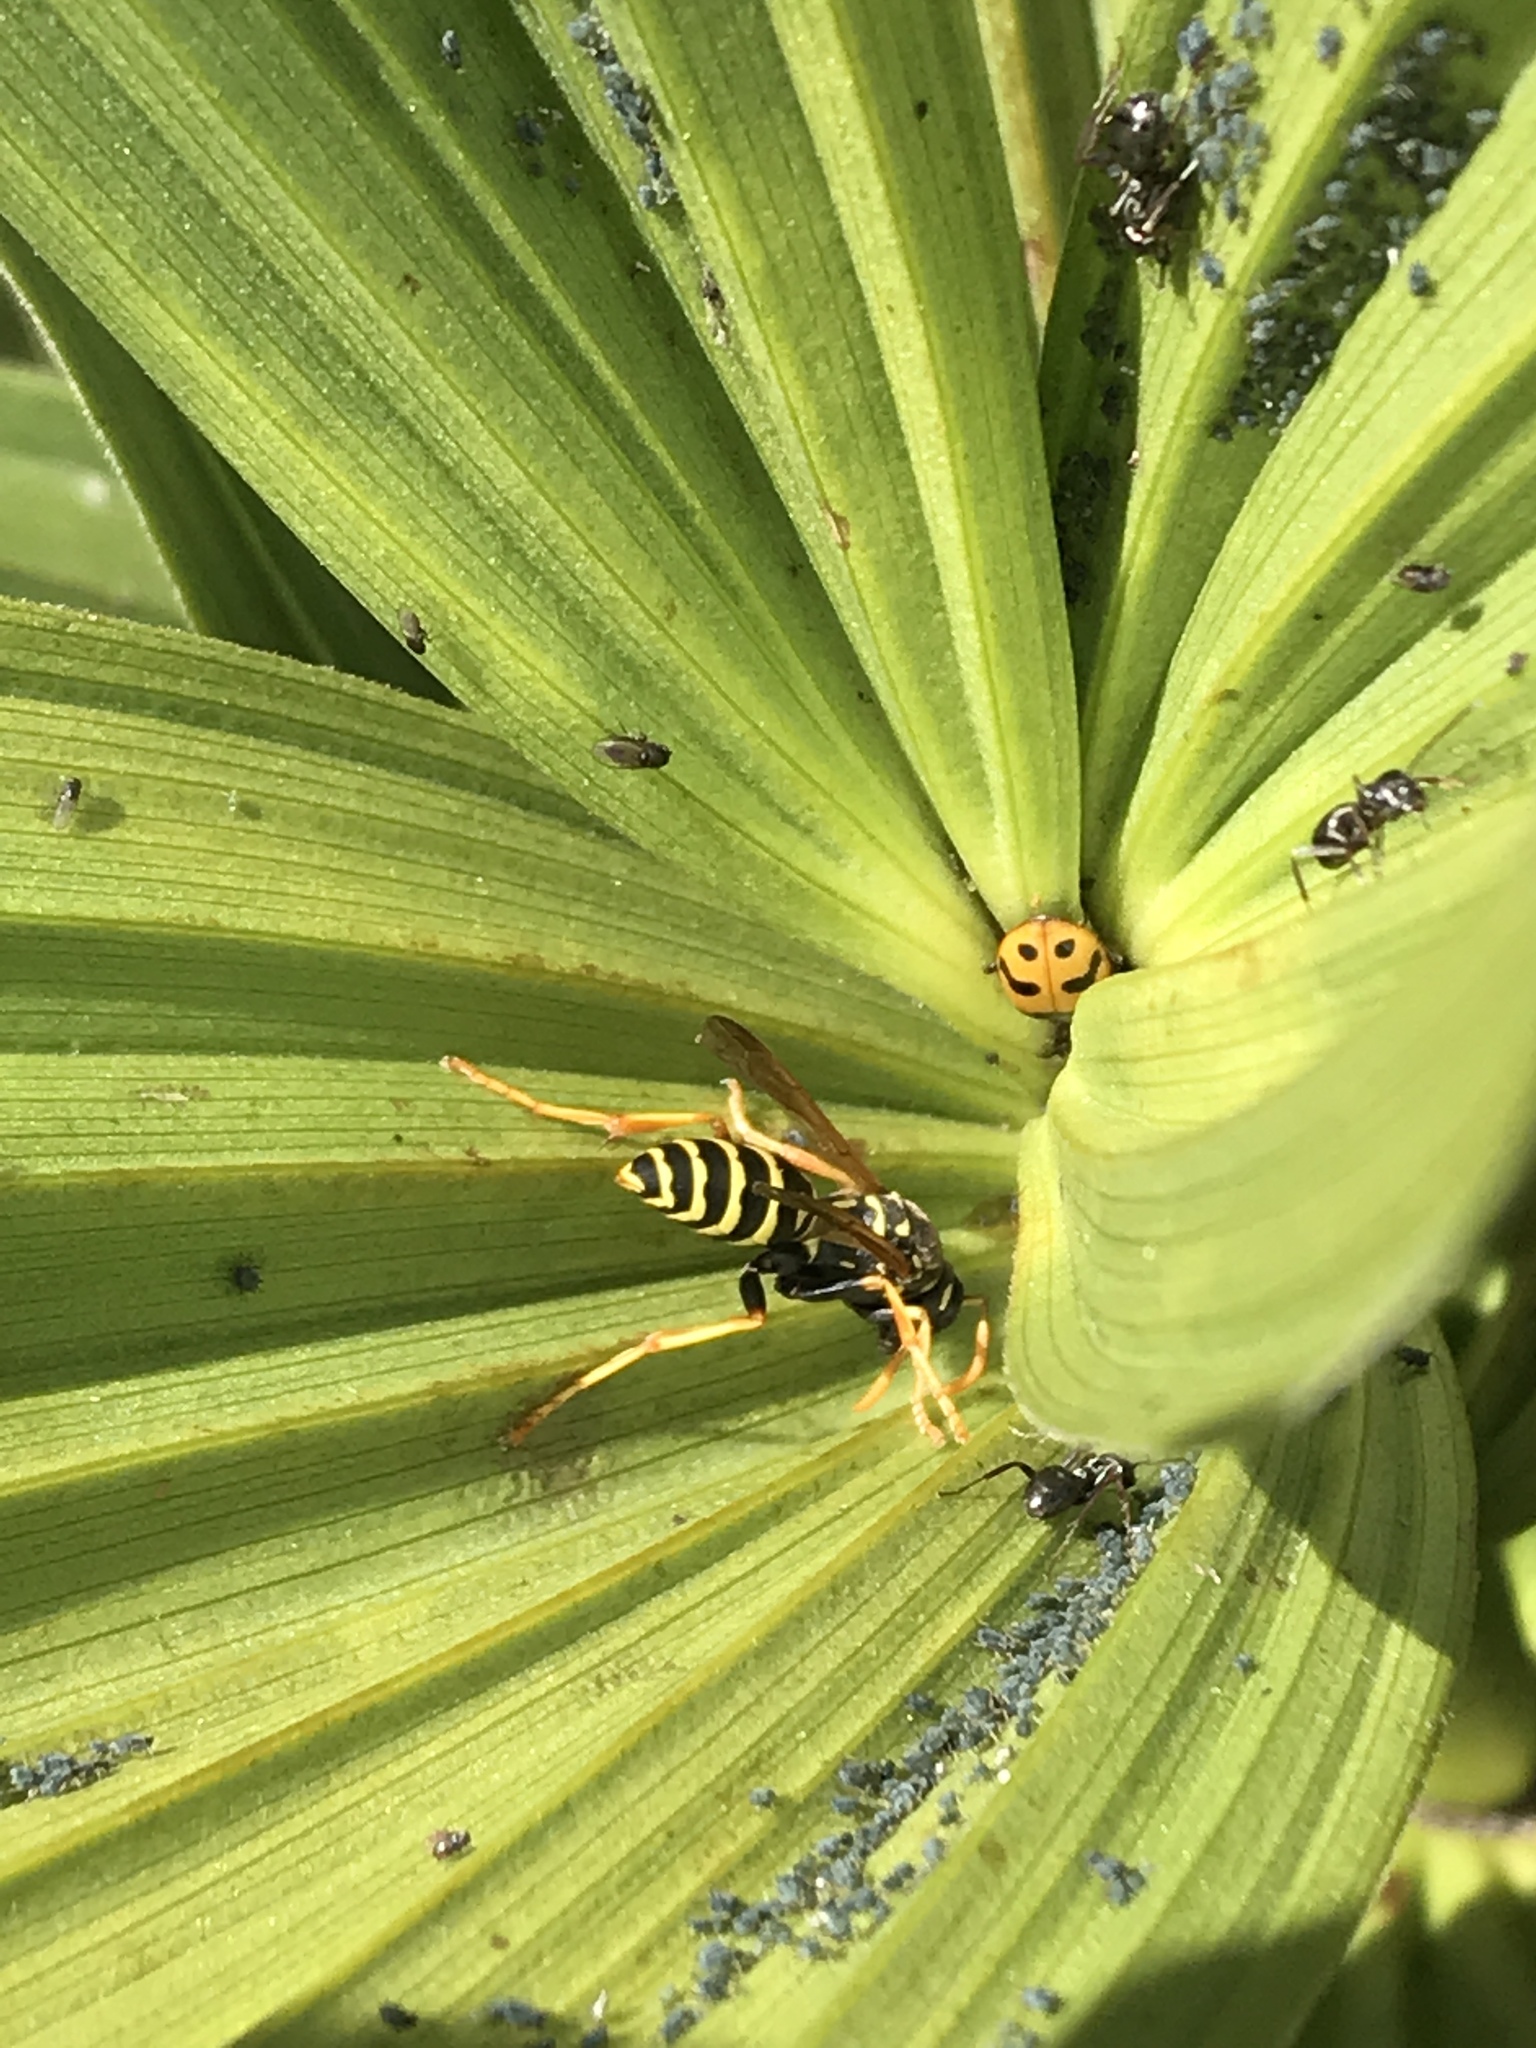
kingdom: Animalia
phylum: Arthropoda
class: Insecta
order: Hymenoptera
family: Eumenidae
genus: Polistes
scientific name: Polistes dominula
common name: Paper wasp
